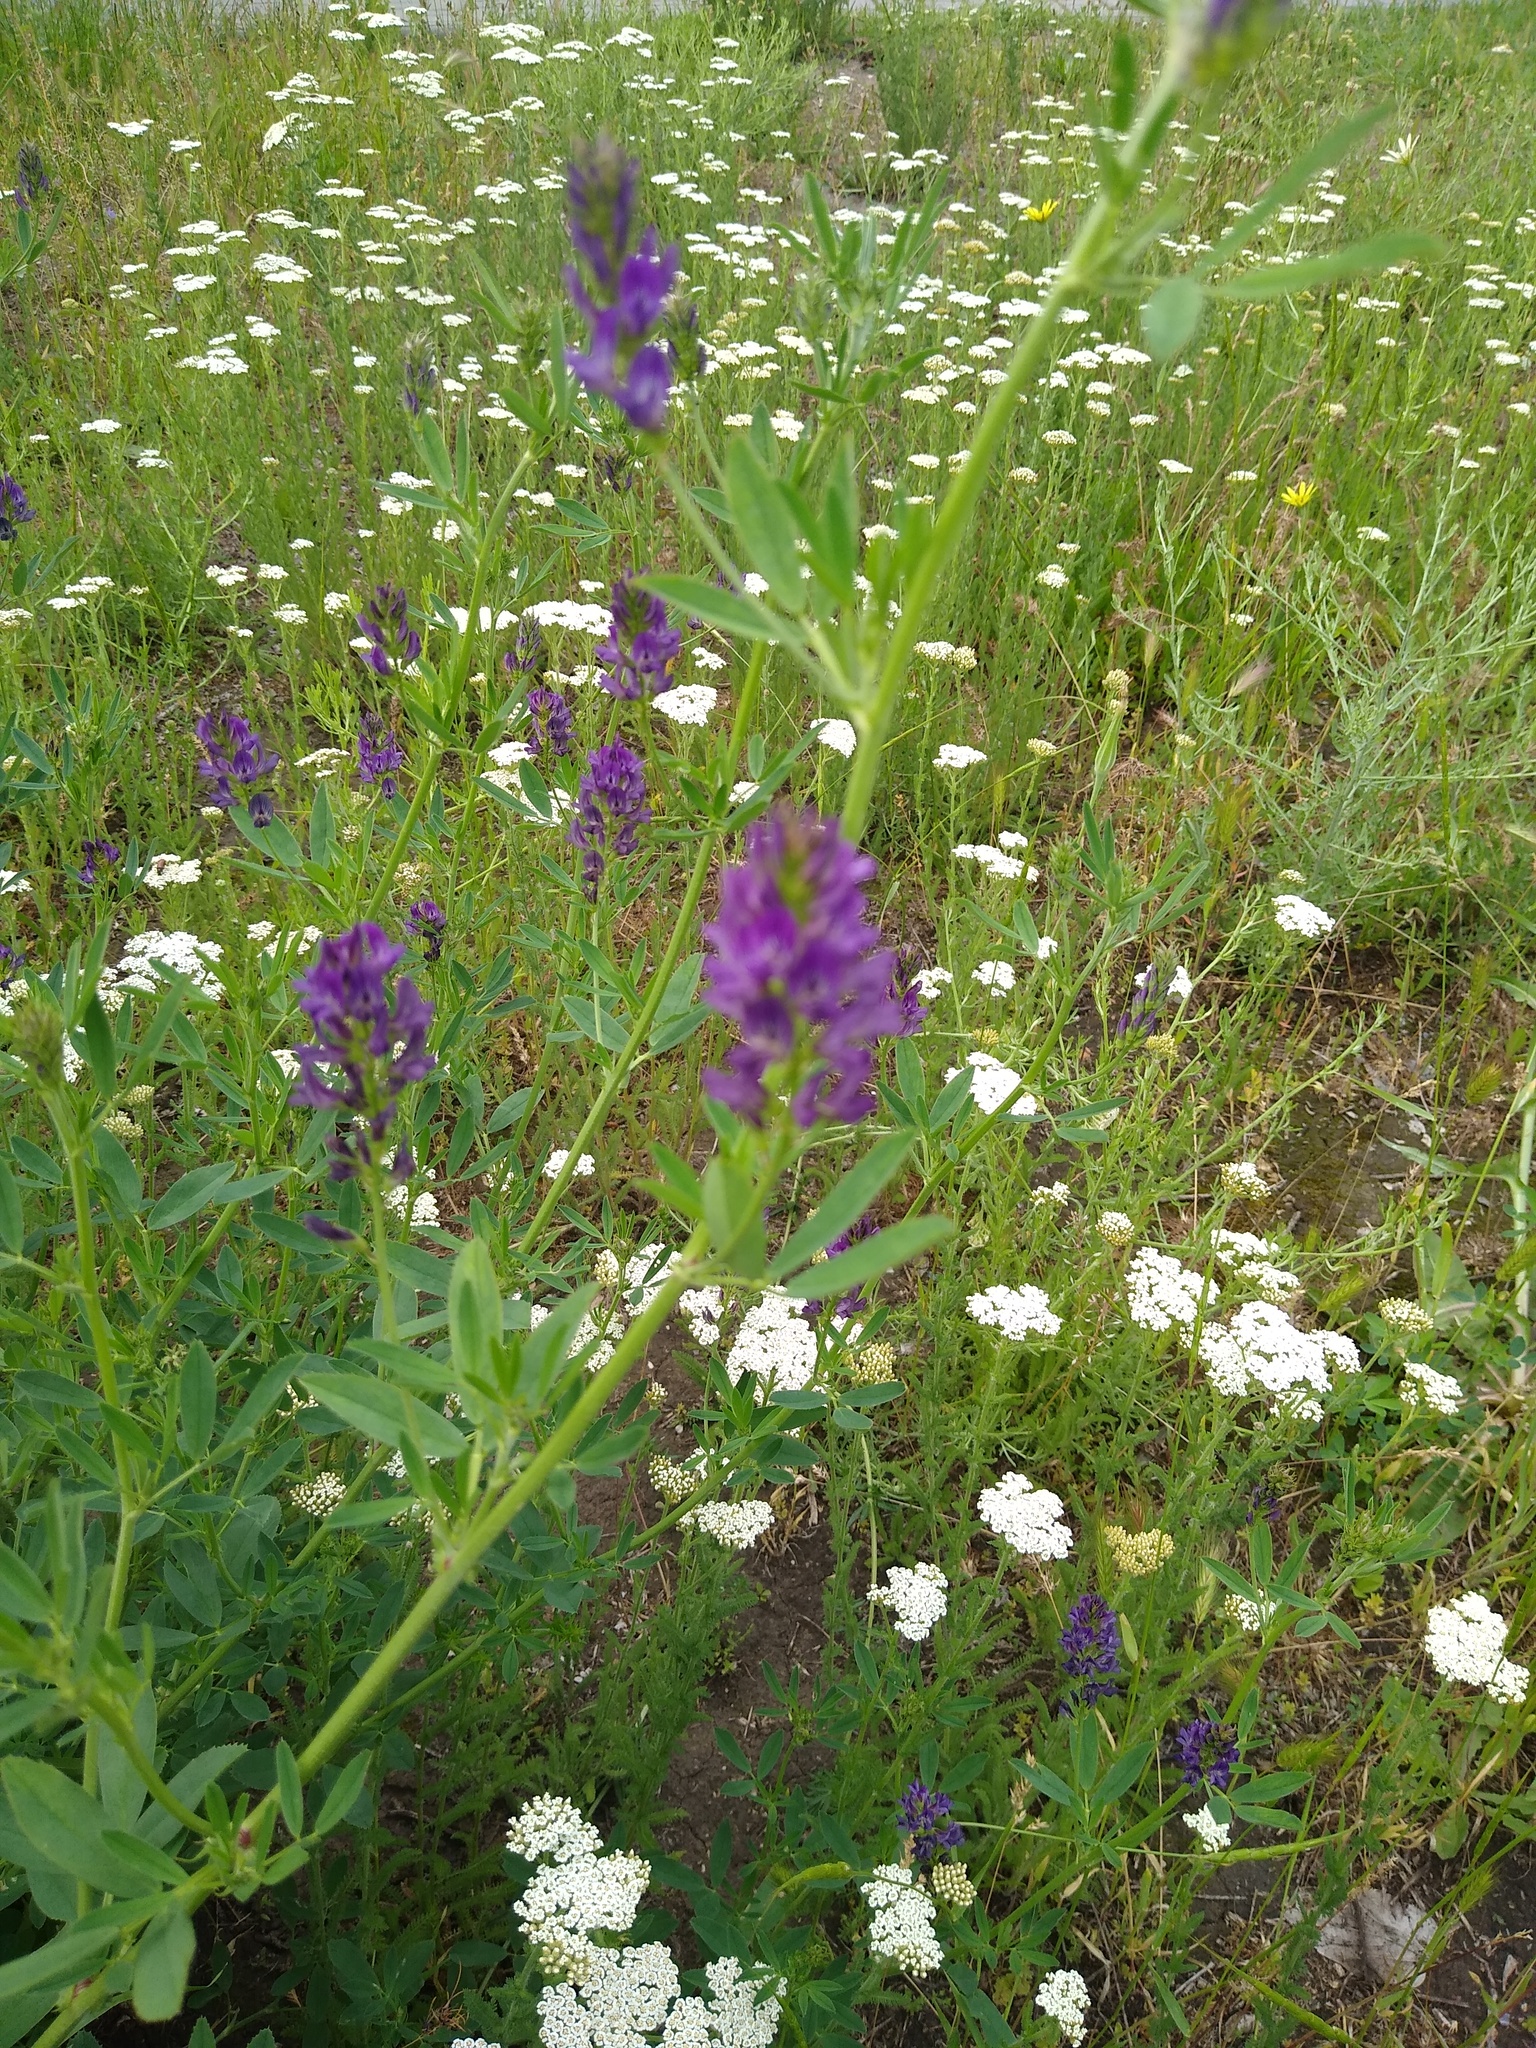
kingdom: Plantae
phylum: Tracheophyta
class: Magnoliopsida
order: Fabales
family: Fabaceae
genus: Medicago
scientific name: Medicago varia
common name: Sand lucerne
